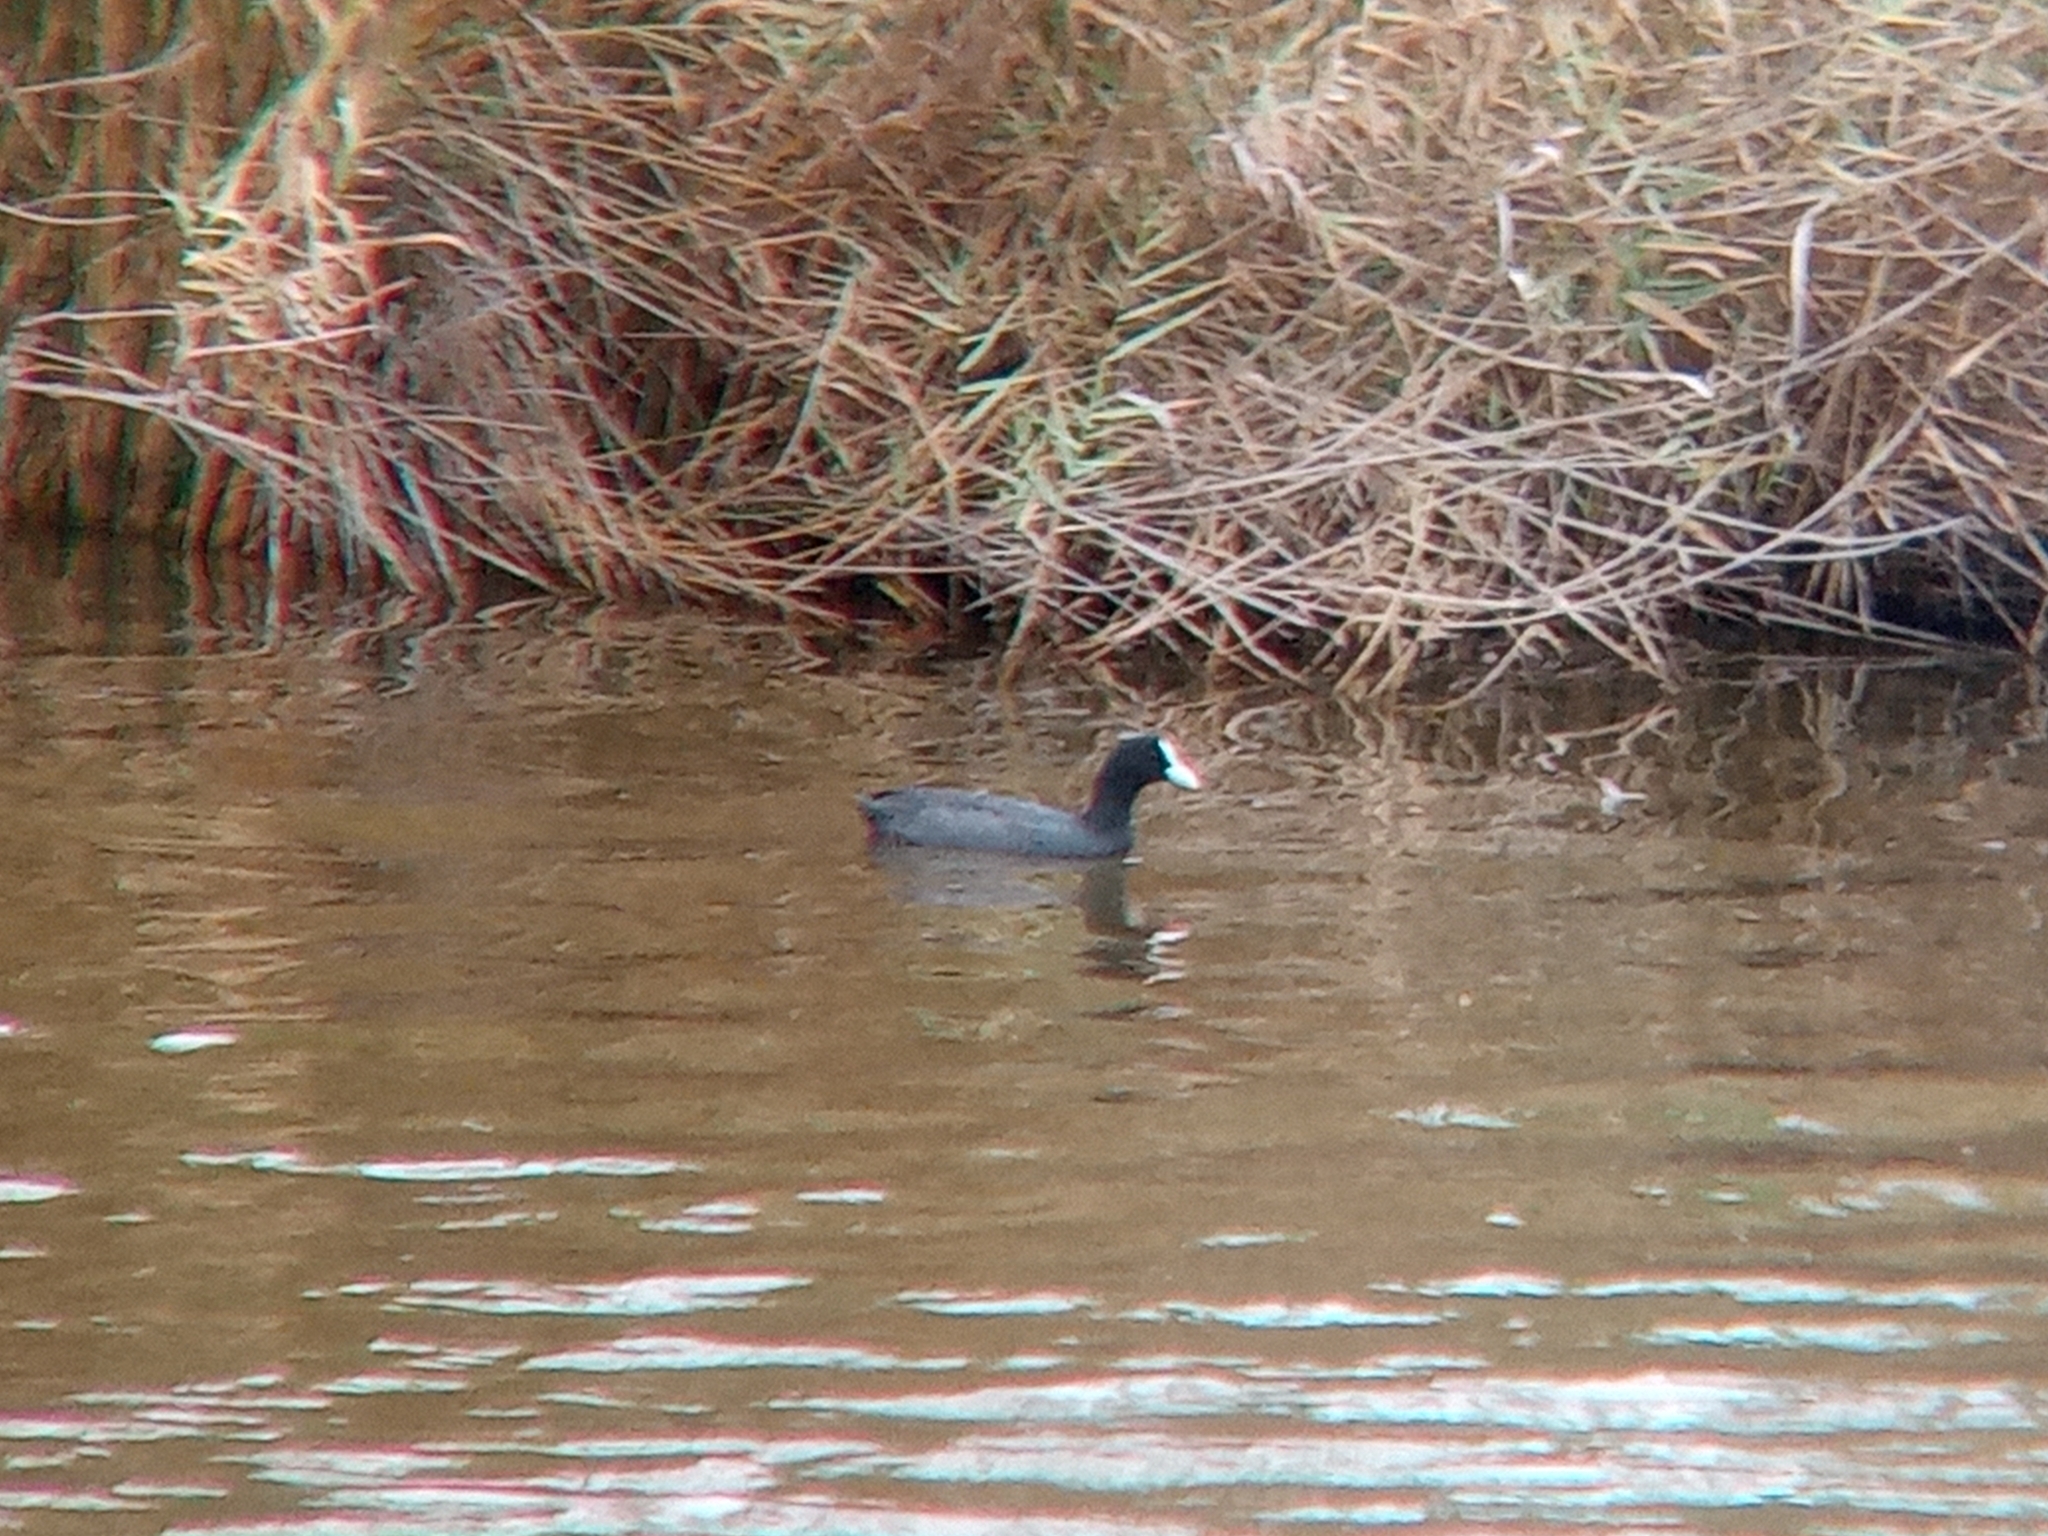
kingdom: Animalia
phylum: Chordata
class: Aves
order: Gruiformes
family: Rallidae
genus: Fulica
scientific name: Fulica atra
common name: Eurasian coot
